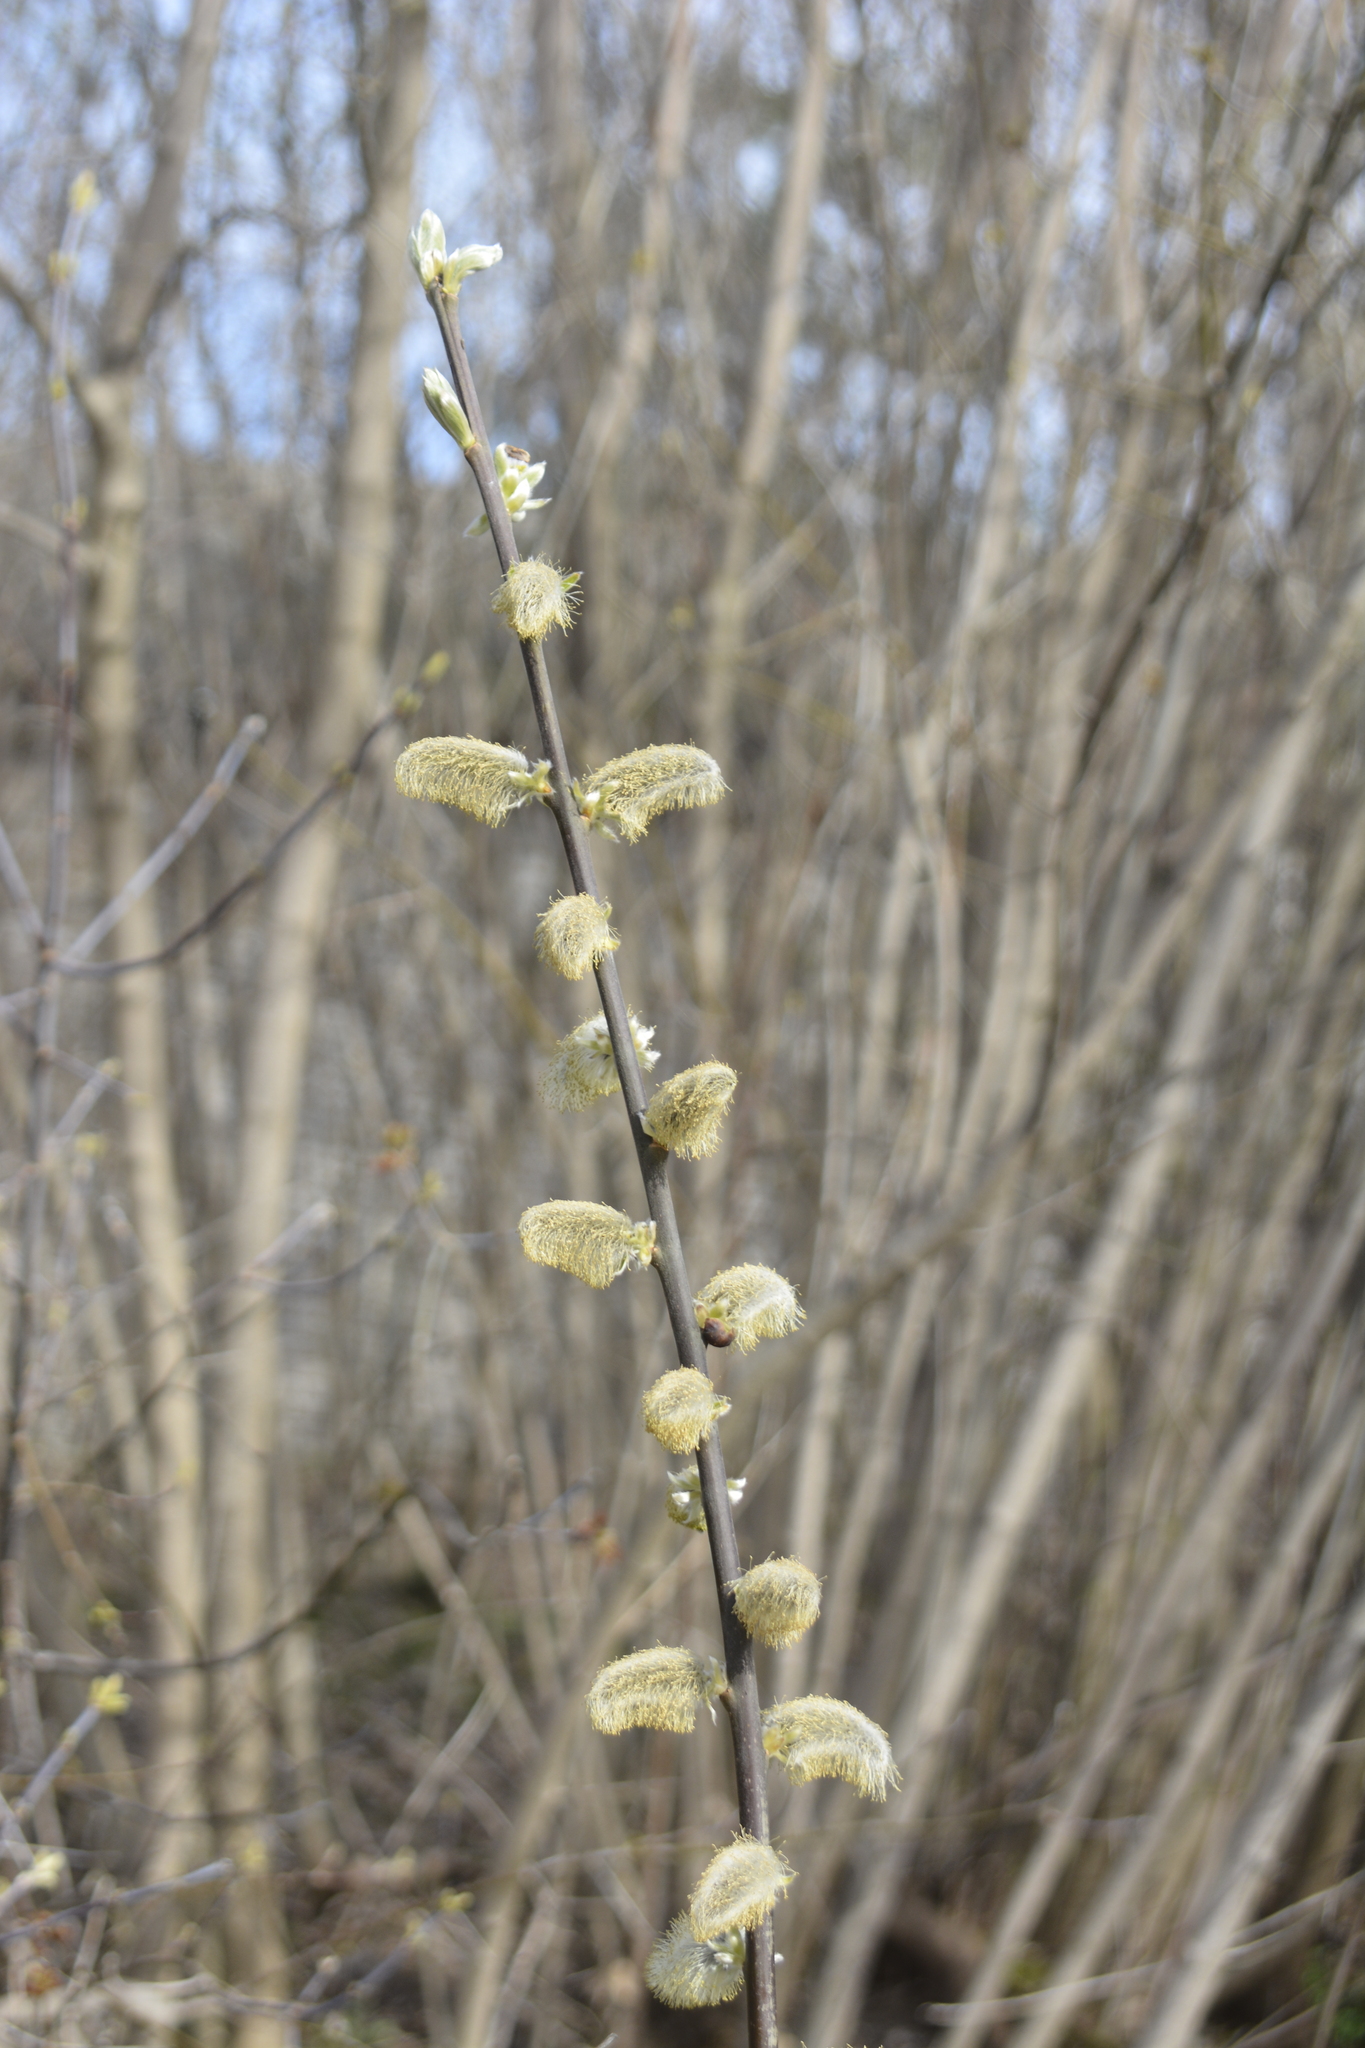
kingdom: Plantae
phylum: Tracheophyta
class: Magnoliopsida
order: Malpighiales
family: Salicaceae
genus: Salix
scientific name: Salix cinerea
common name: Common sallow
